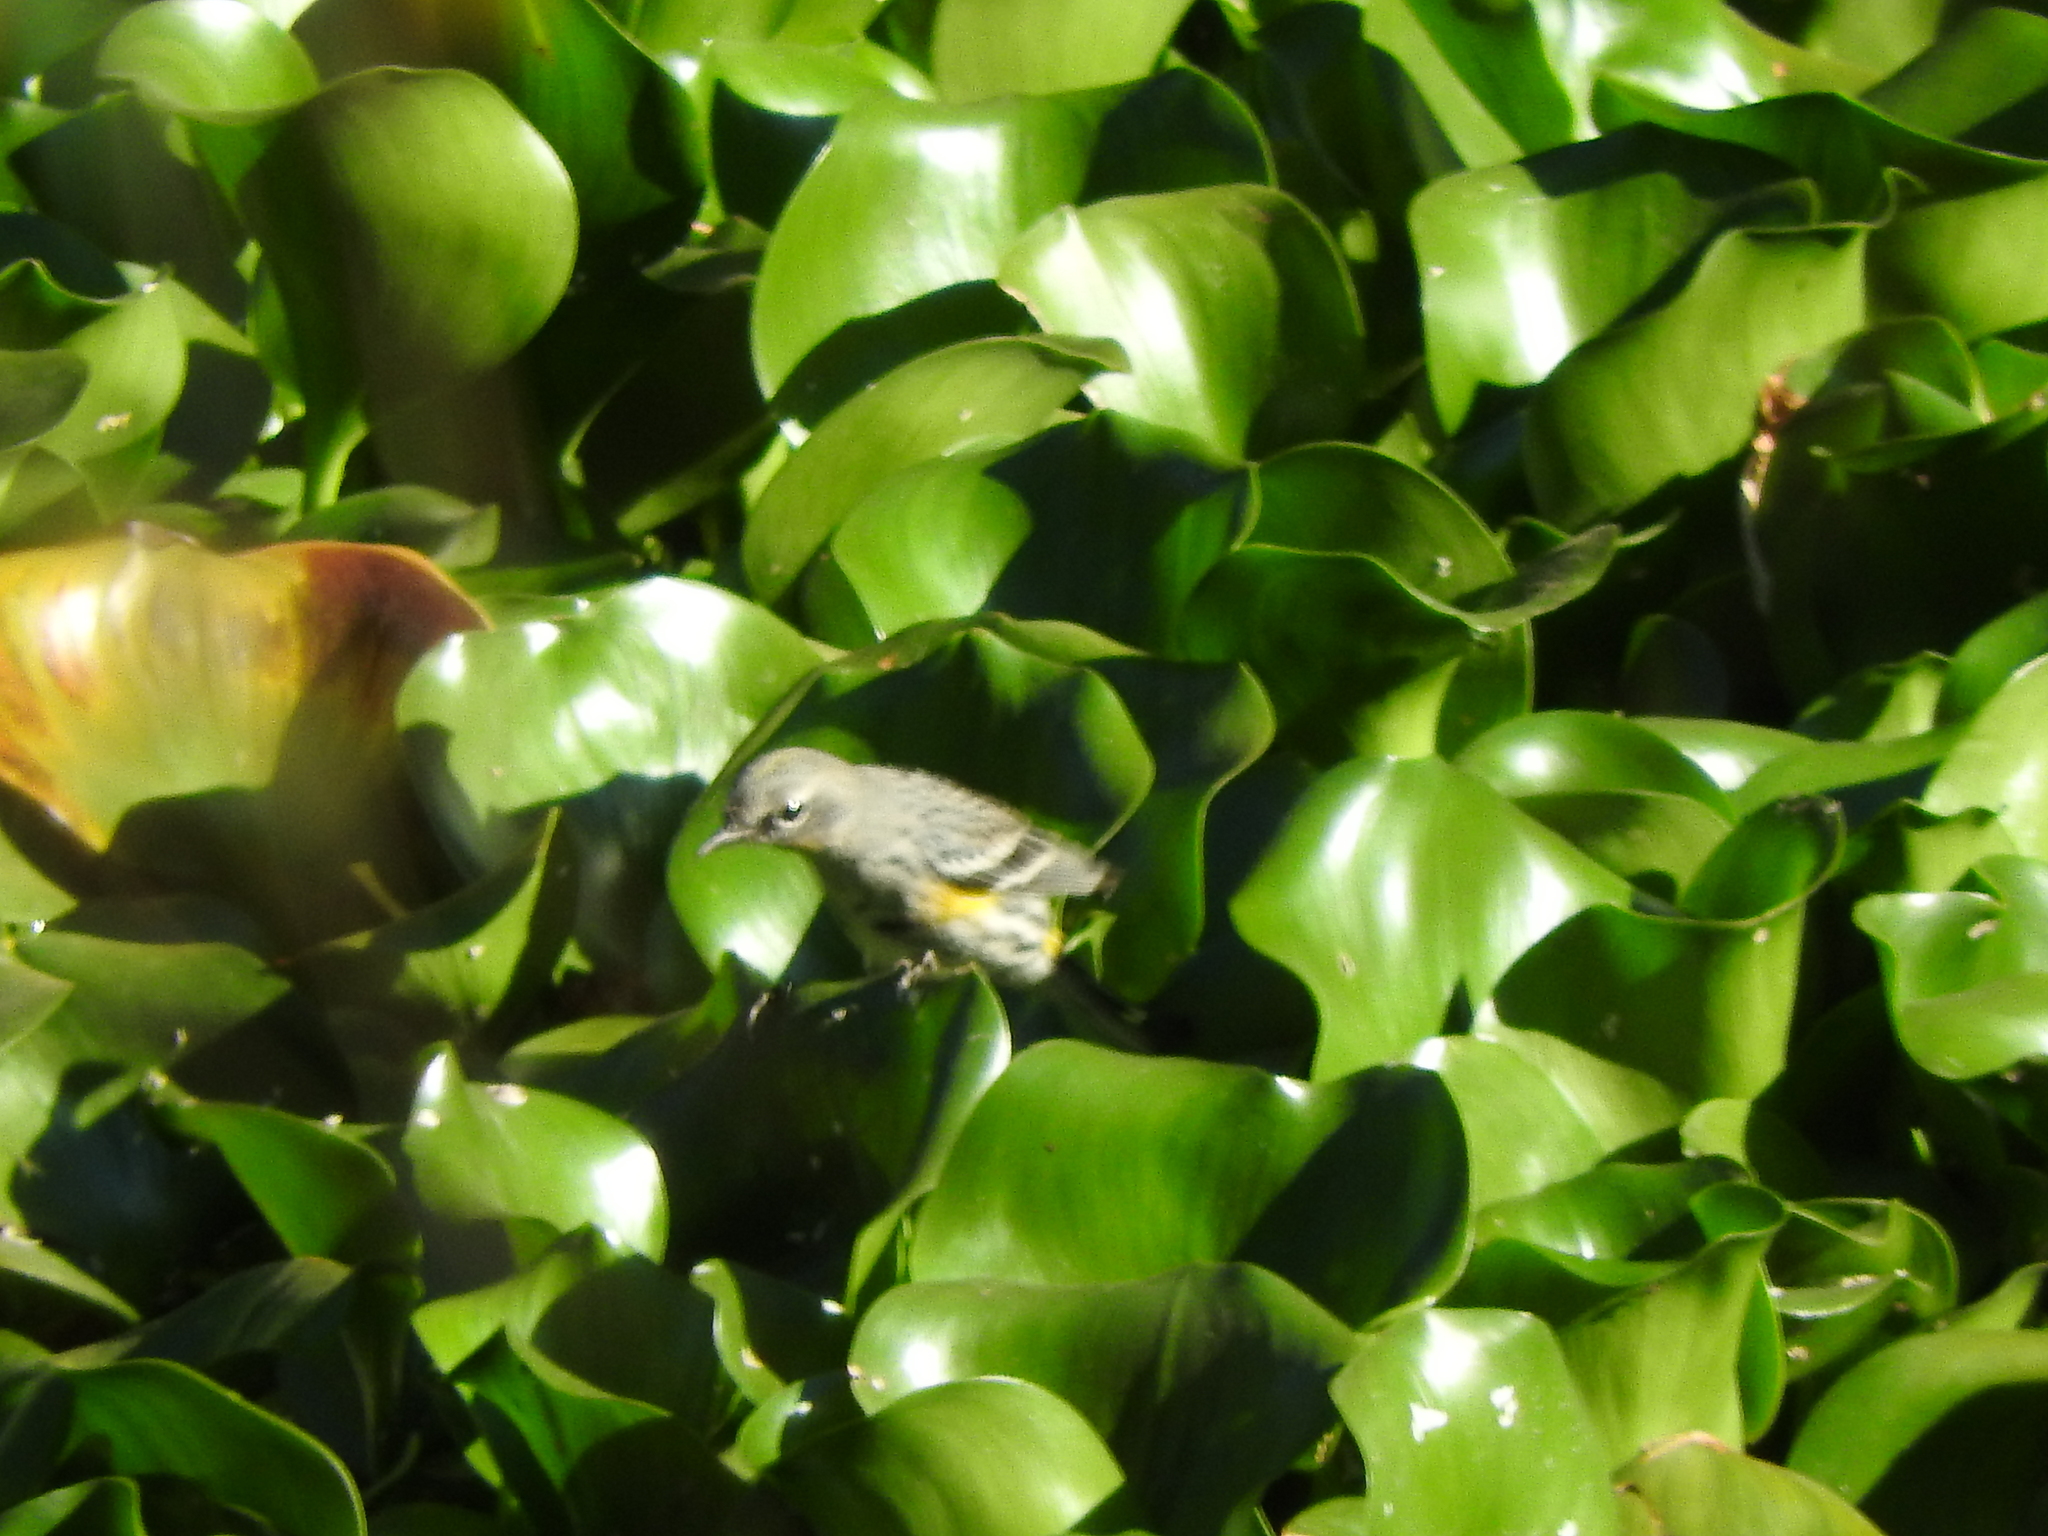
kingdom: Animalia
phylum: Chordata
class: Aves
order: Passeriformes
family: Parulidae
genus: Setophaga
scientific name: Setophaga coronata
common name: Myrtle warbler
